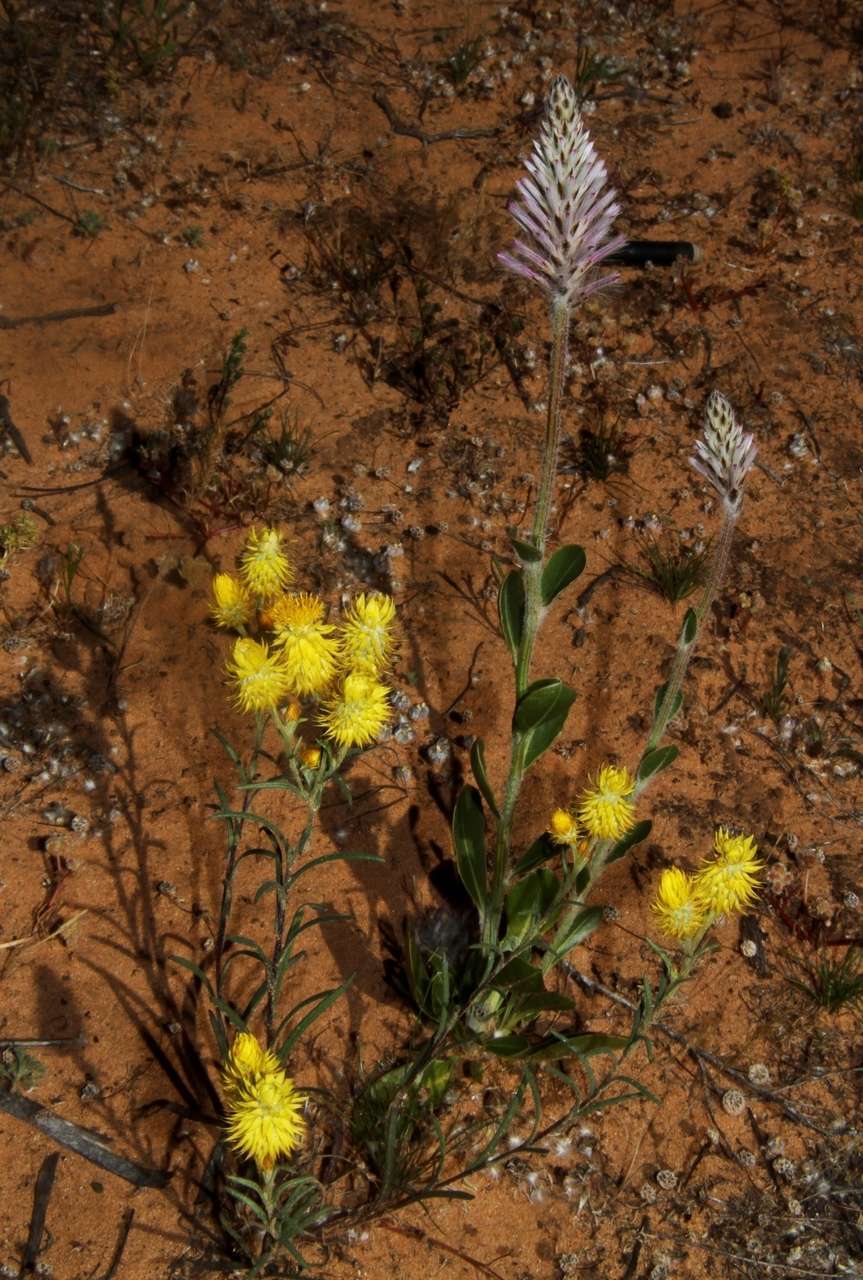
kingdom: Plantae
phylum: Tracheophyta
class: Magnoliopsida
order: Asterales
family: Asteraceae
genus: Waitzia
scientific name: Waitzia acuminata
